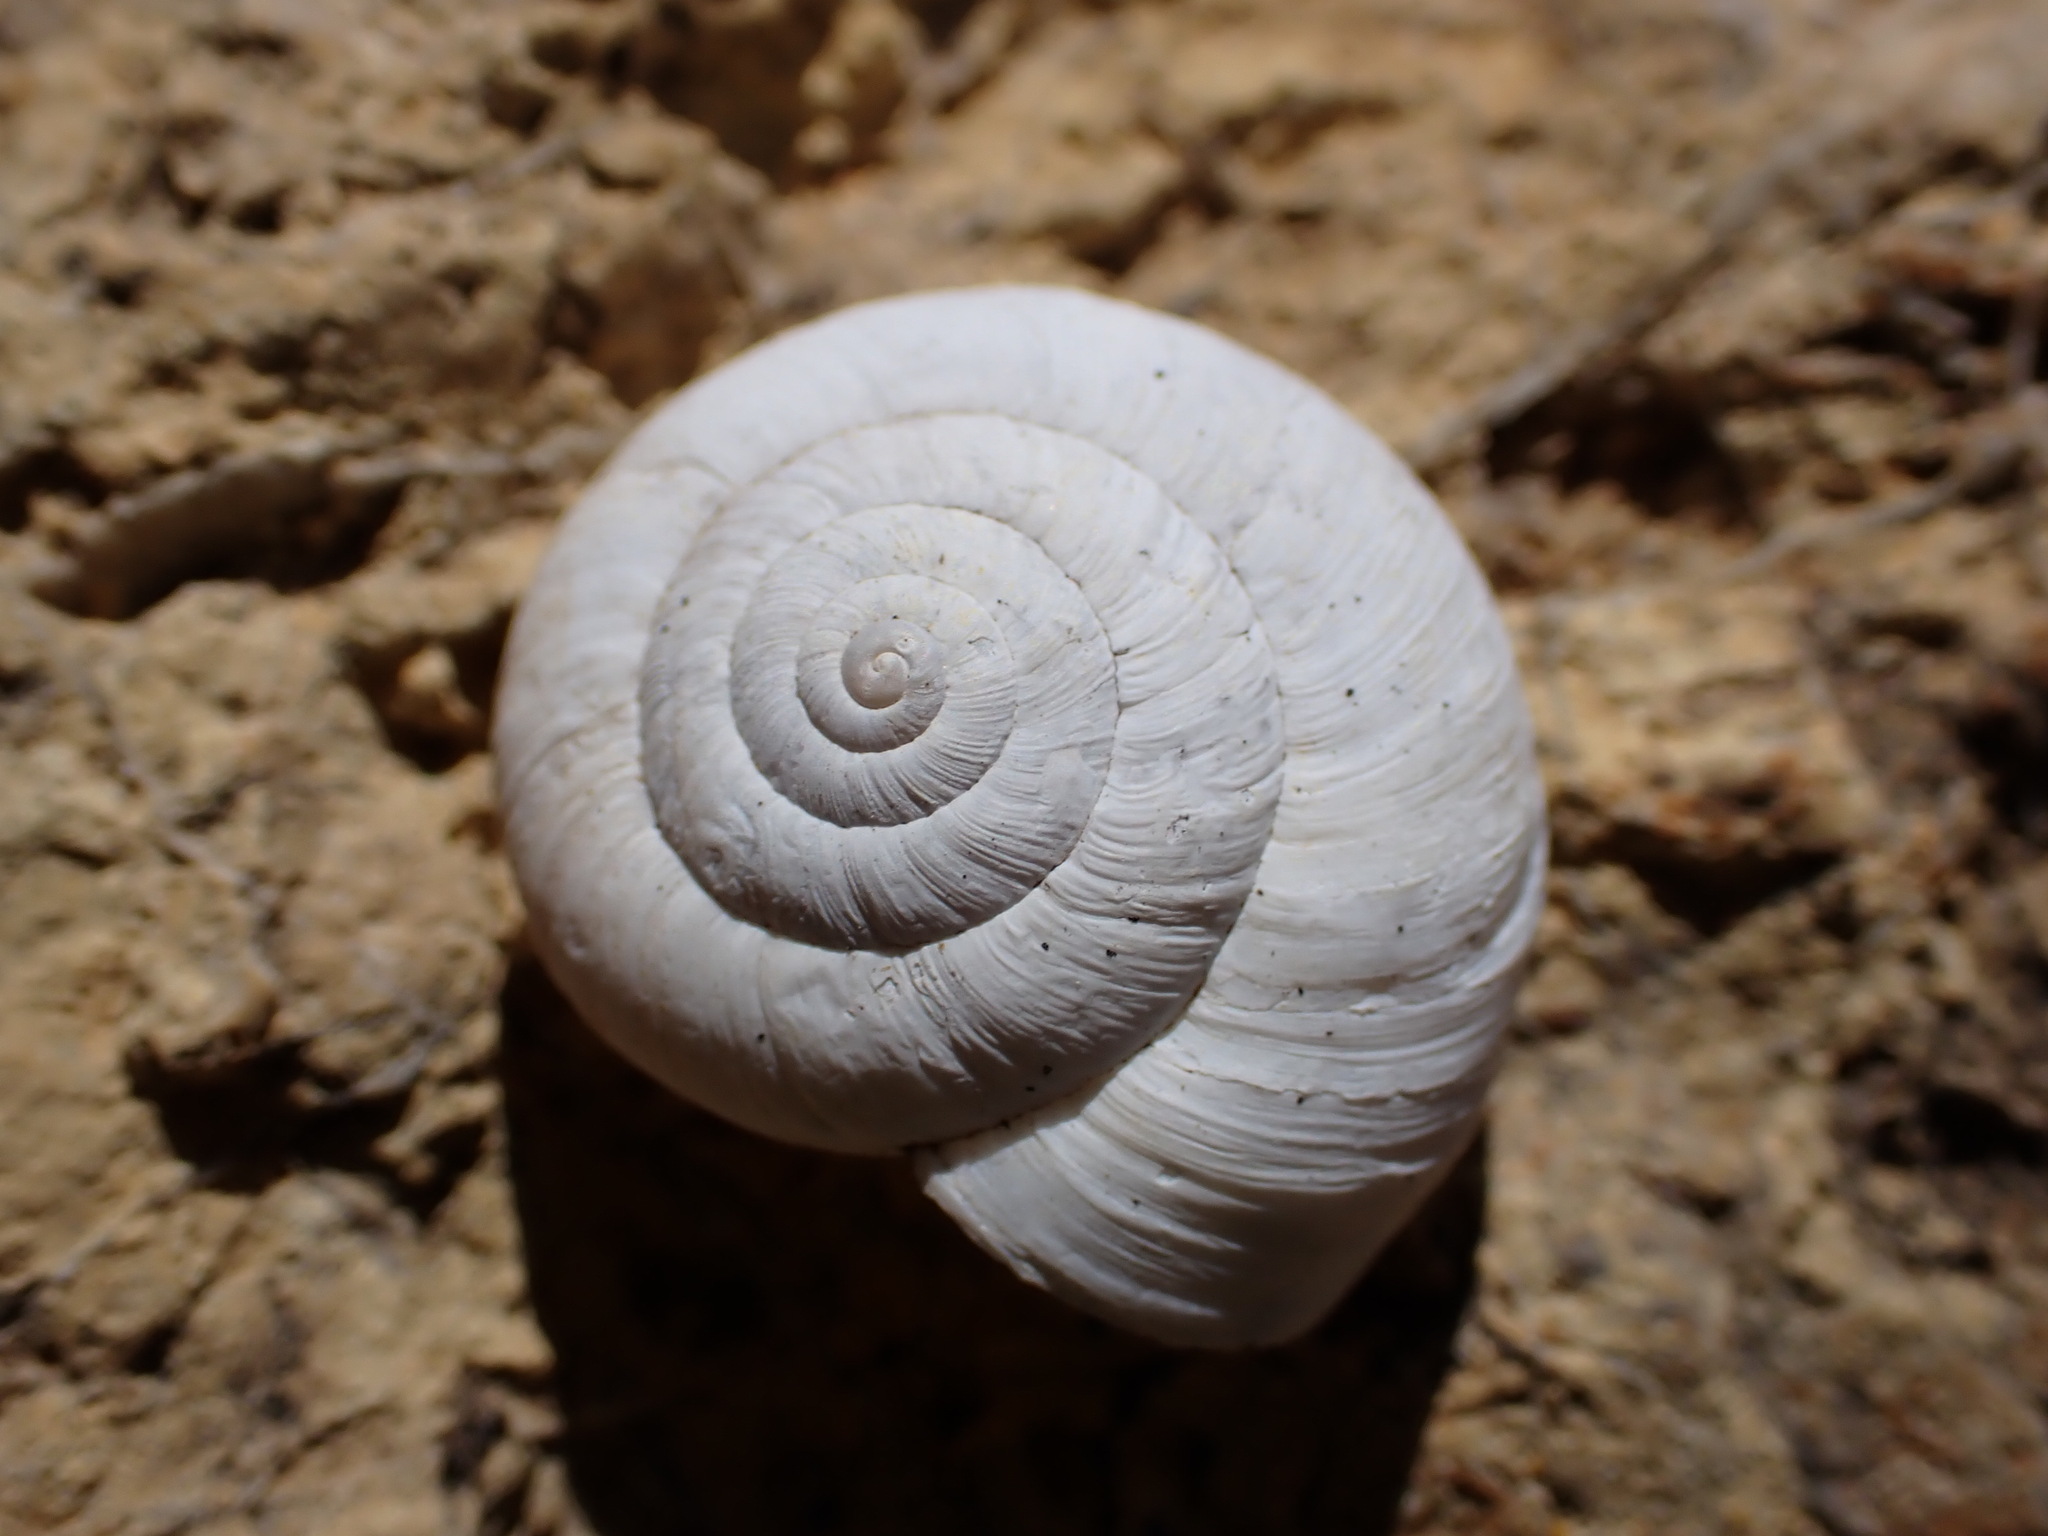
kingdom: Animalia
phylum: Mollusca
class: Gastropoda
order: Stylommatophora
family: Geomitridae
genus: Xeropicta
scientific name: Xeropicta derbentina
